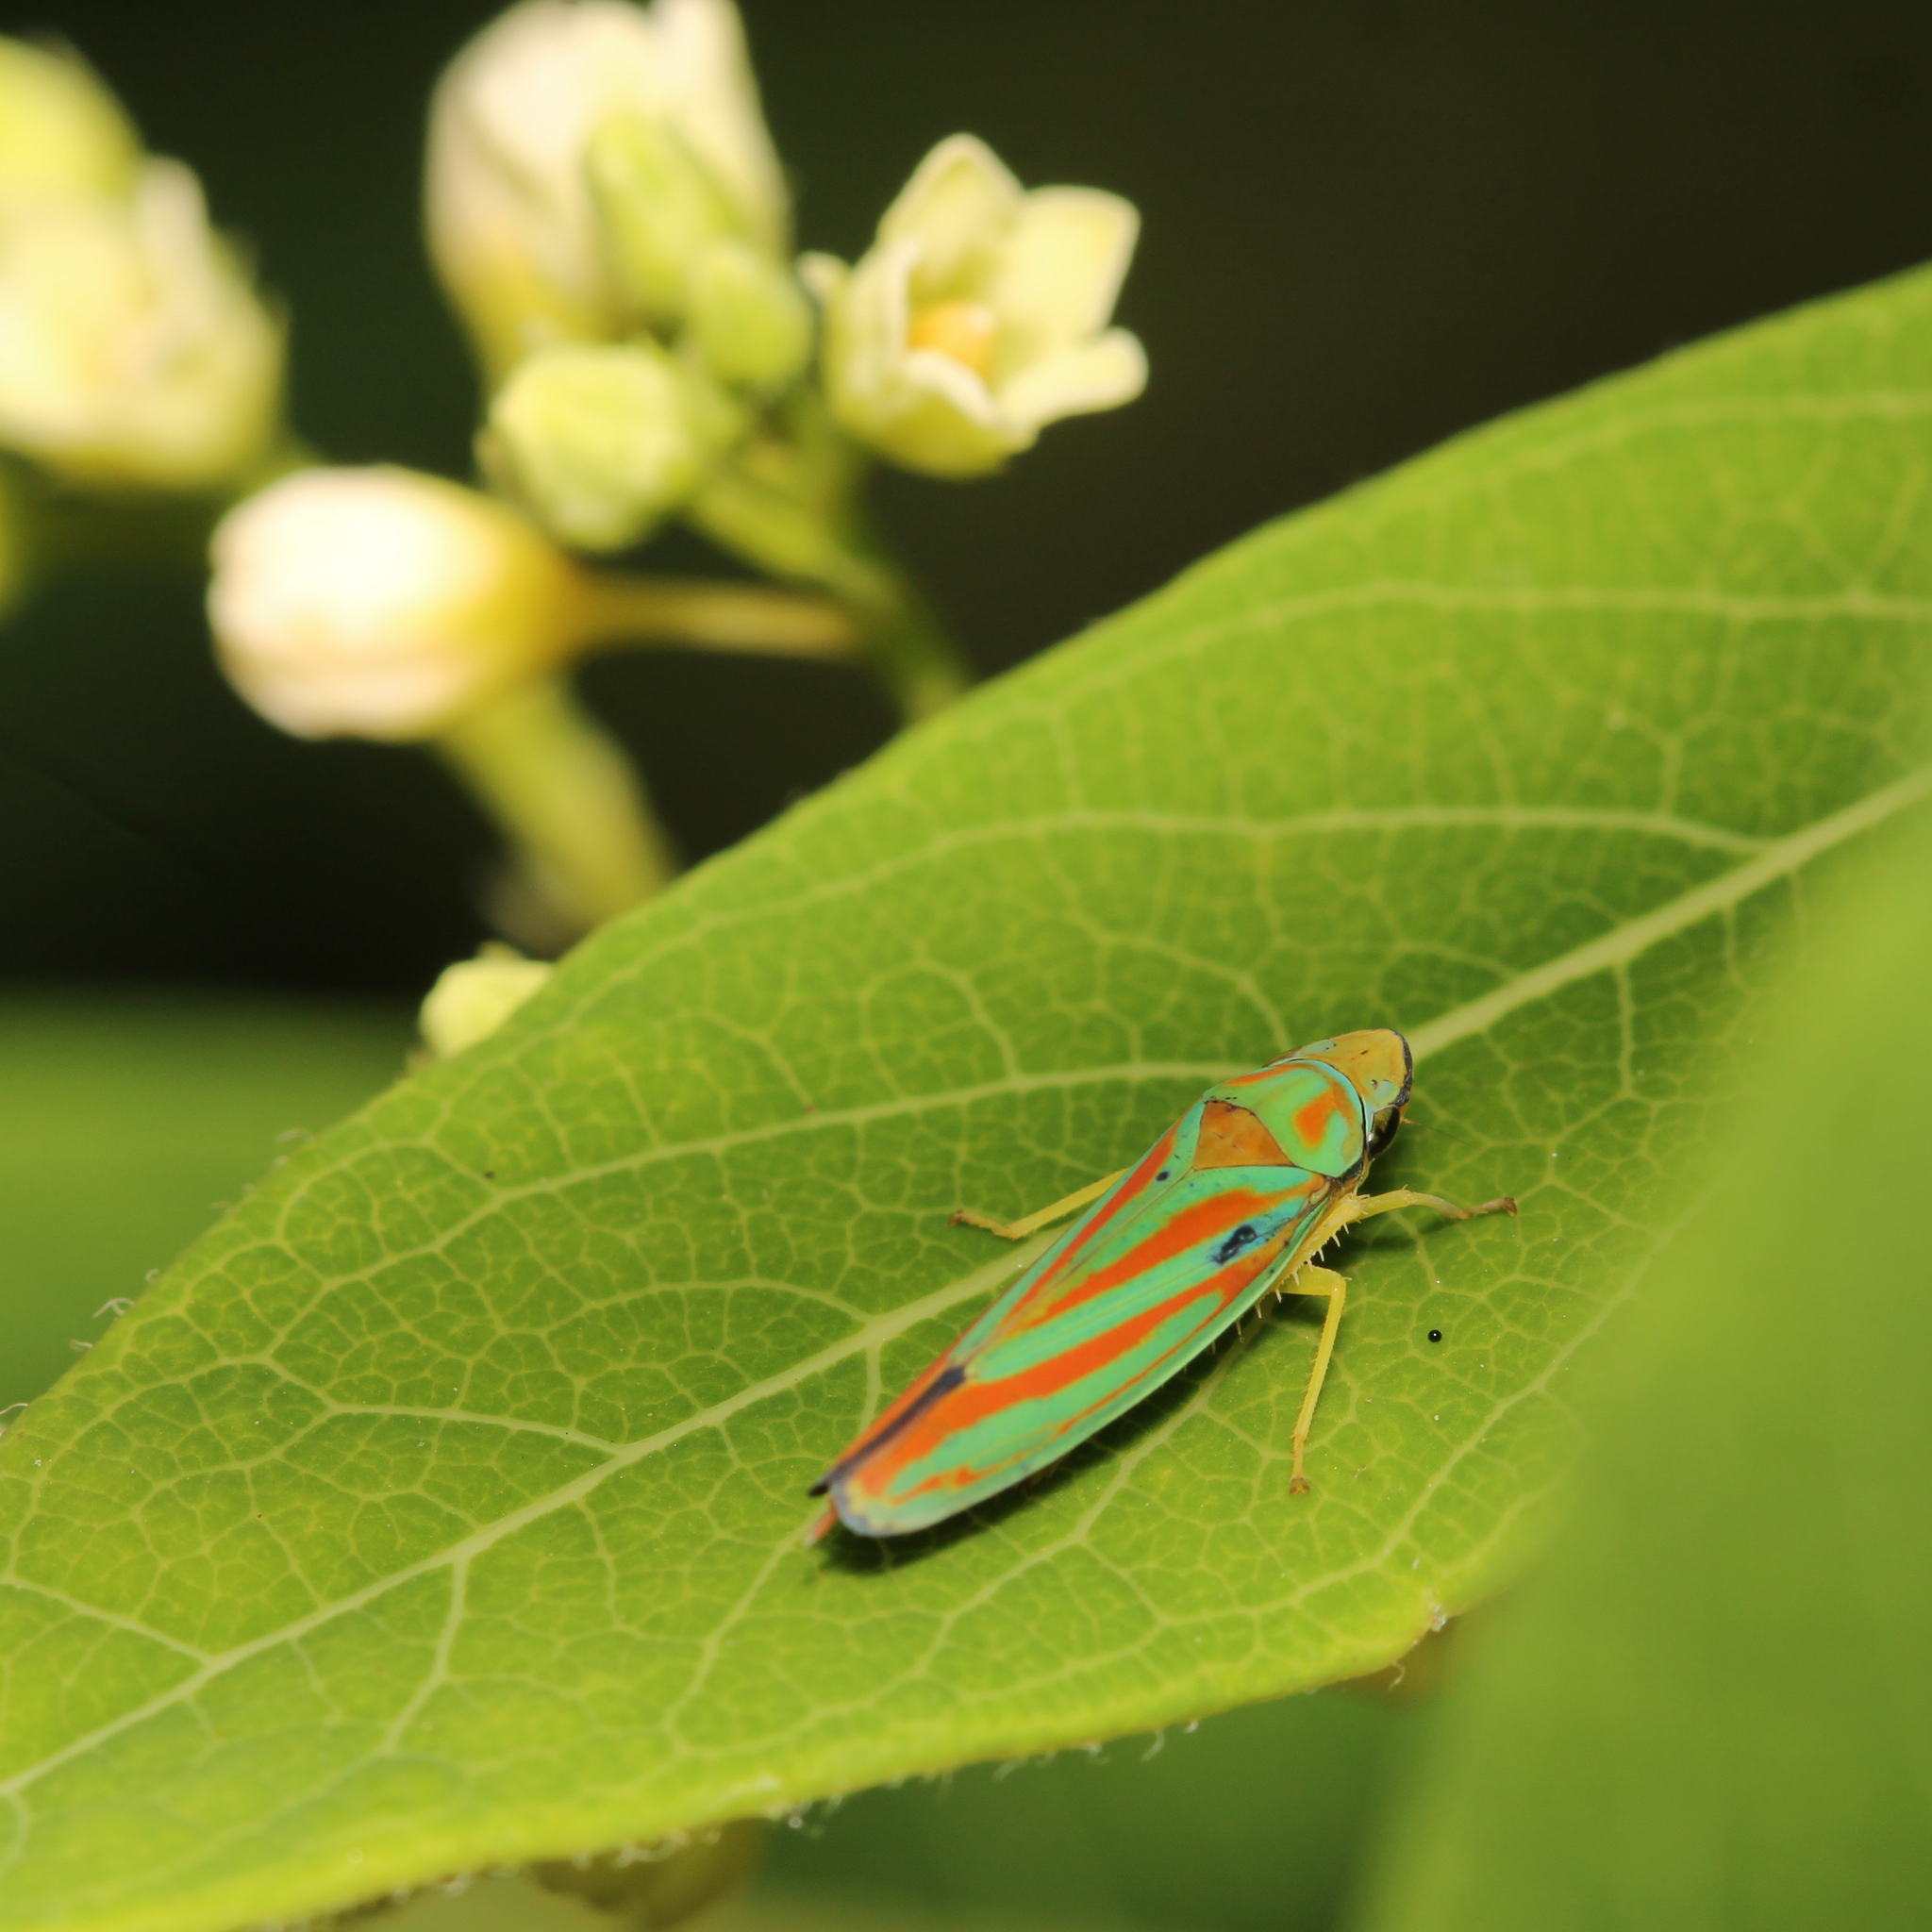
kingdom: Animalia
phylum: Arthropoda
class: Insecta
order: Hemiptera
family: Cicadellidae
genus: Graphocephala
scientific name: Graphocephala coccinea
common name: Candy-striped leafhopper
